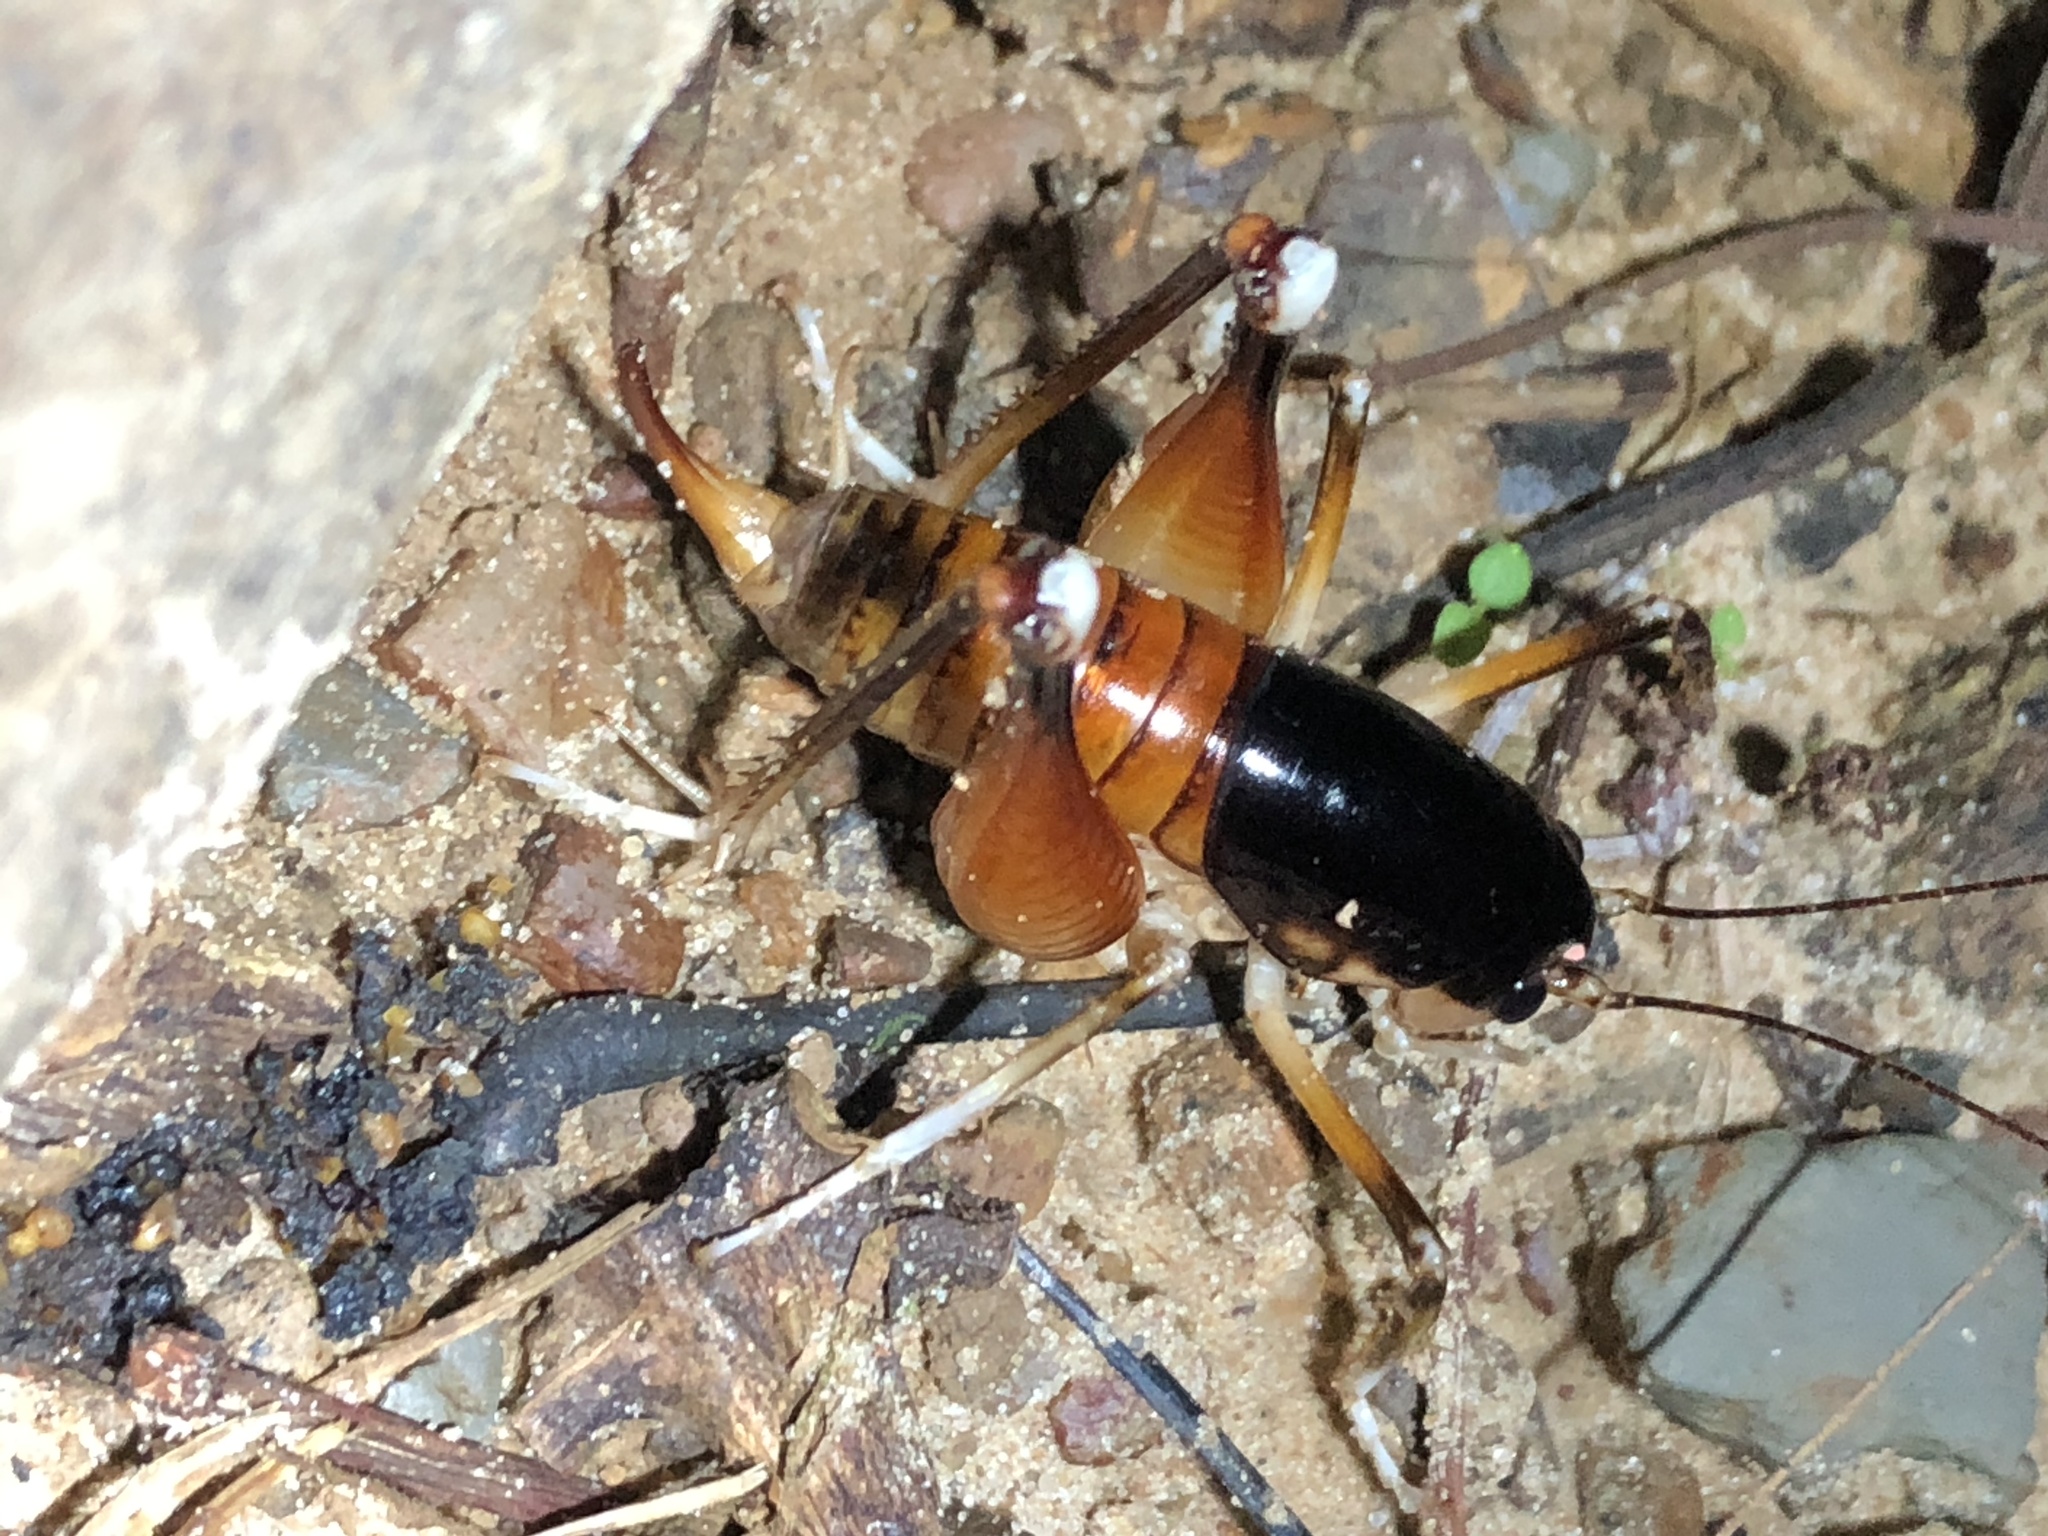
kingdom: Animalia
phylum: Arthropoda
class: Insecta
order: Orthoptera
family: Anostostomatidae
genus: Apotetamenus
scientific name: Apotetamenus amazonae
